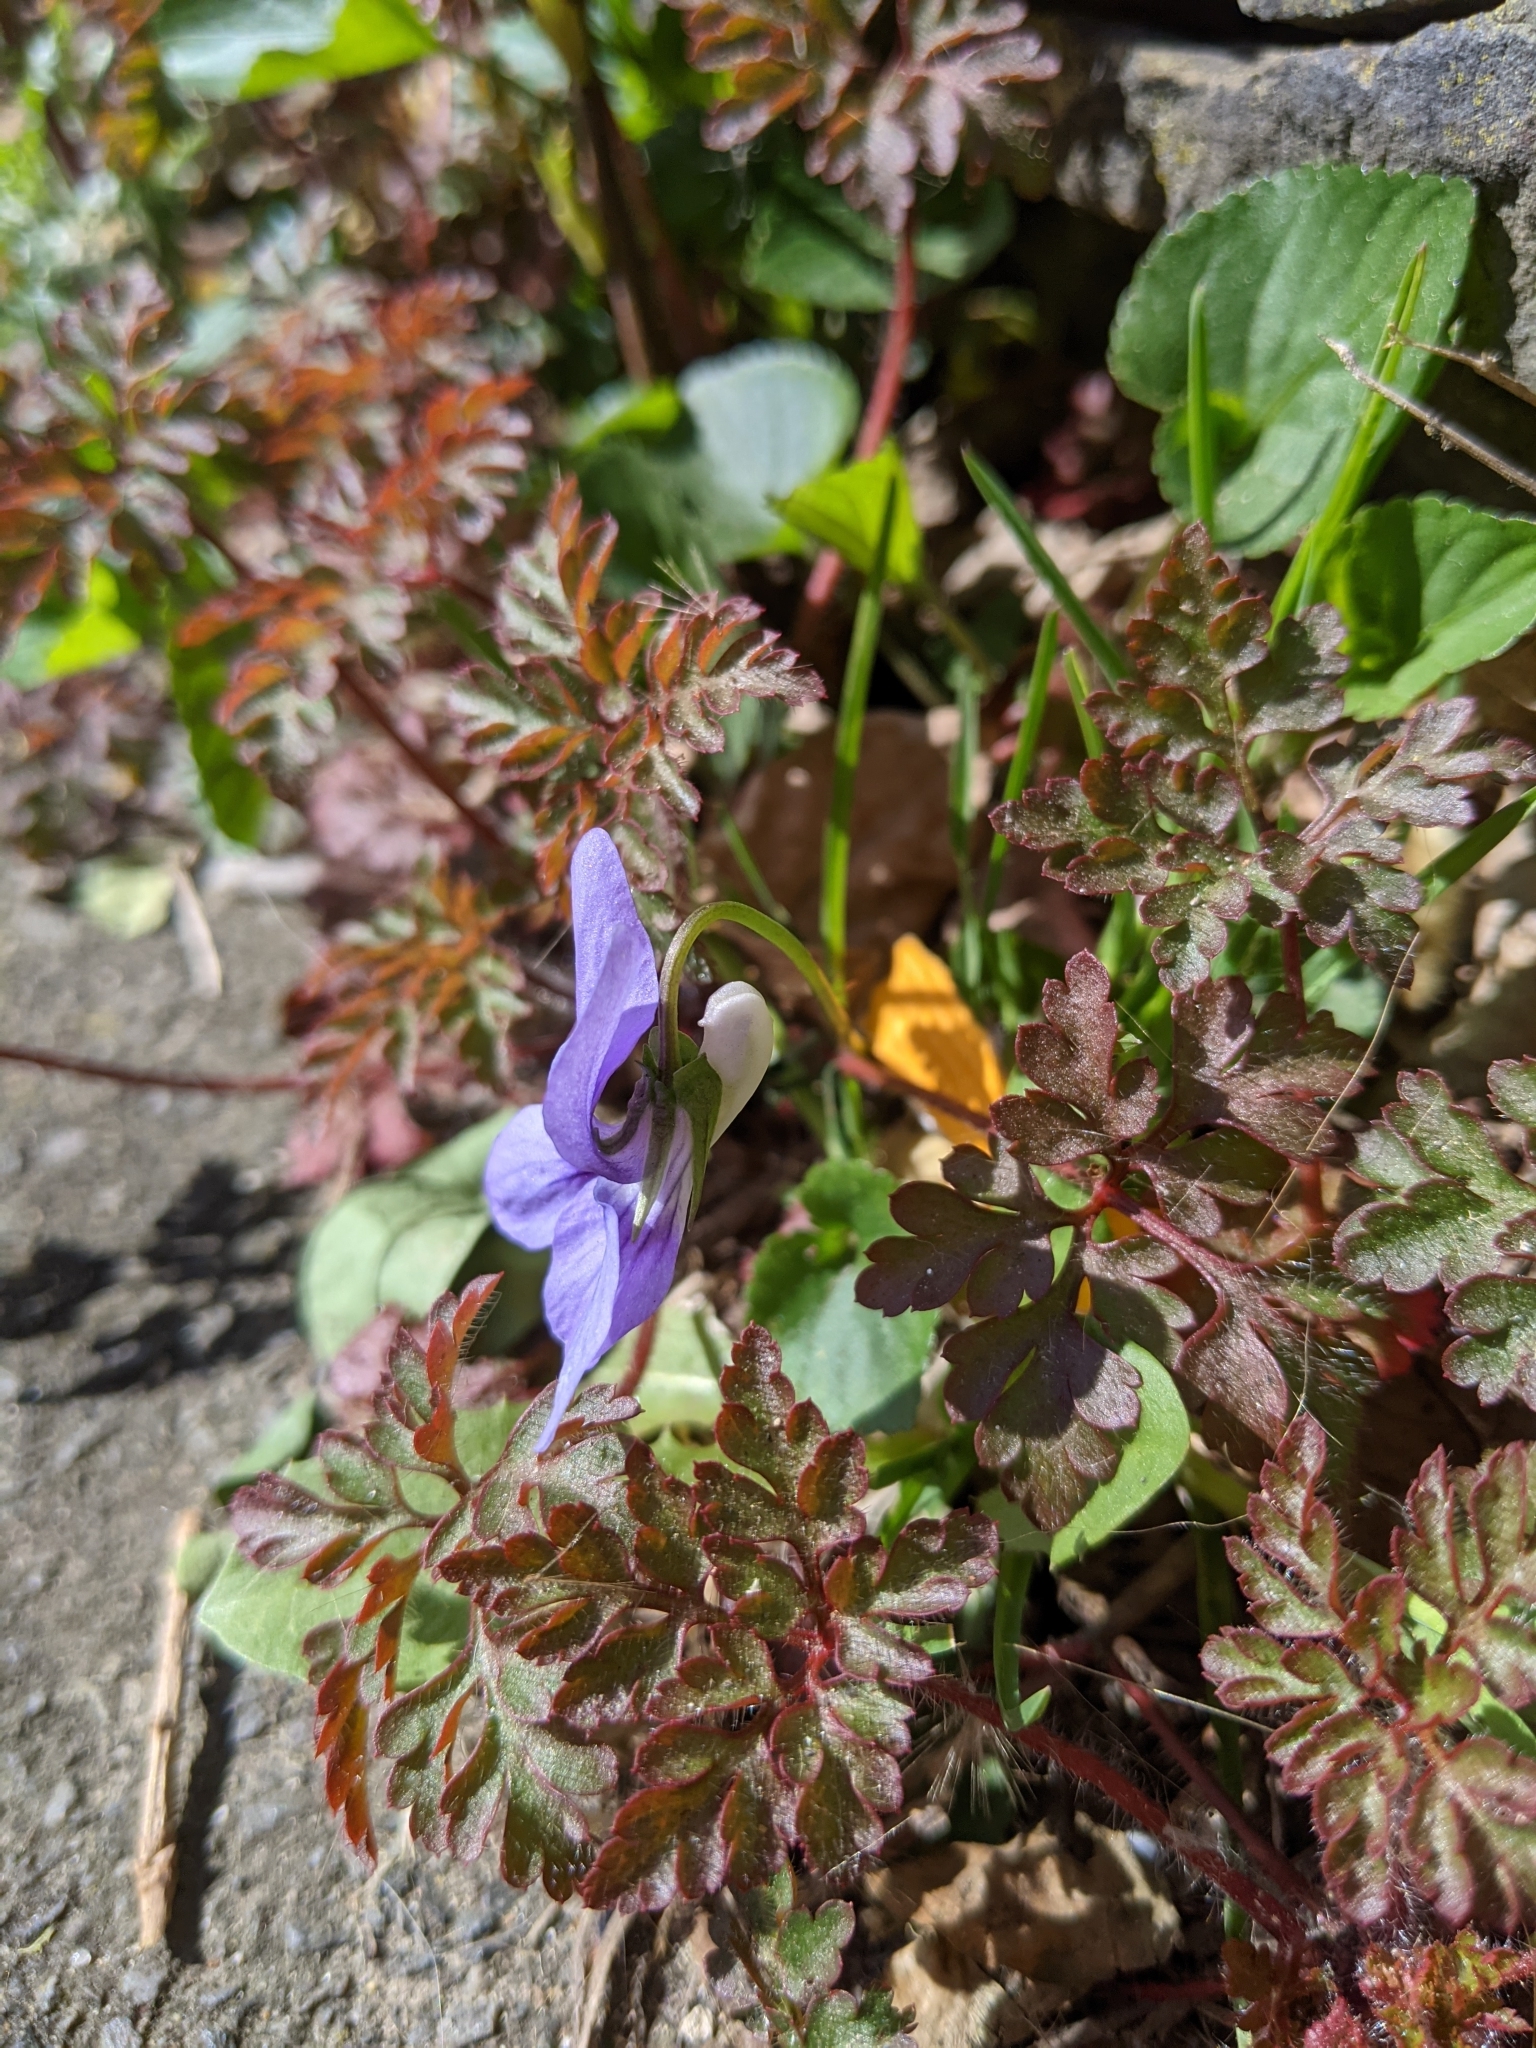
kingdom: Plantae
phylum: Tracheophyta
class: Magnoliopsida
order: Malpighiales
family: Violaceae
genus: Viola
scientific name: Viola riviniana
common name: Common dog-violet
